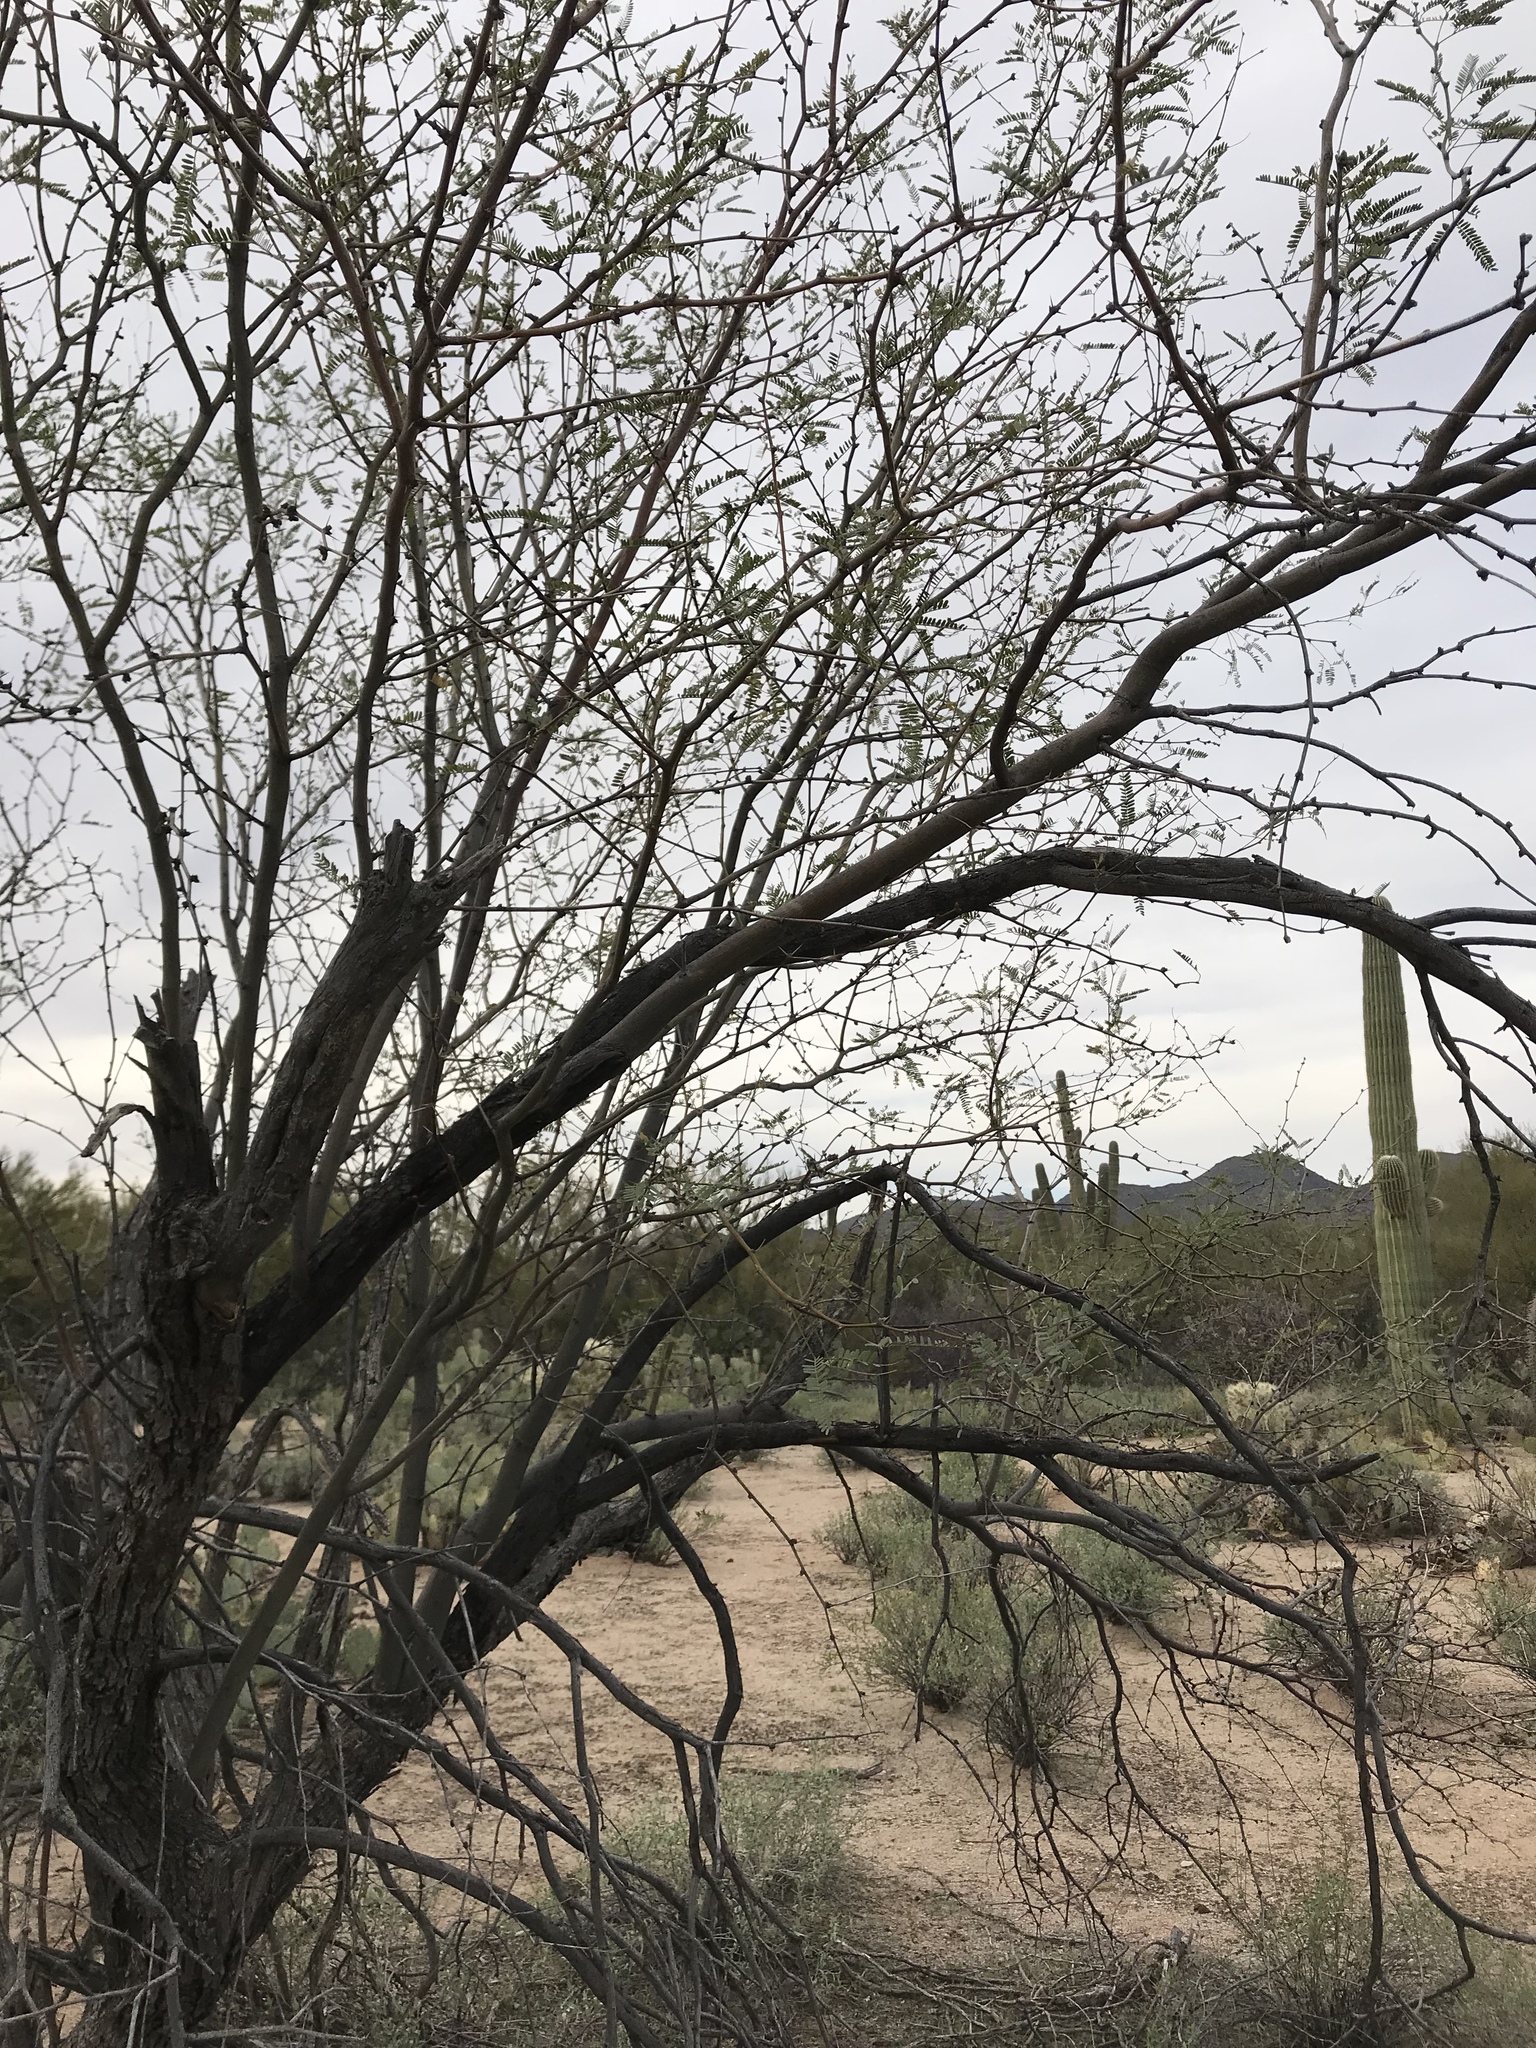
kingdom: Plantae
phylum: Tracheophyta
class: Magnoliopsida
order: Fabales
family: Fabaceae
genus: Prosopis
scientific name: Prosopis velutina
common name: Velvet mesquite
